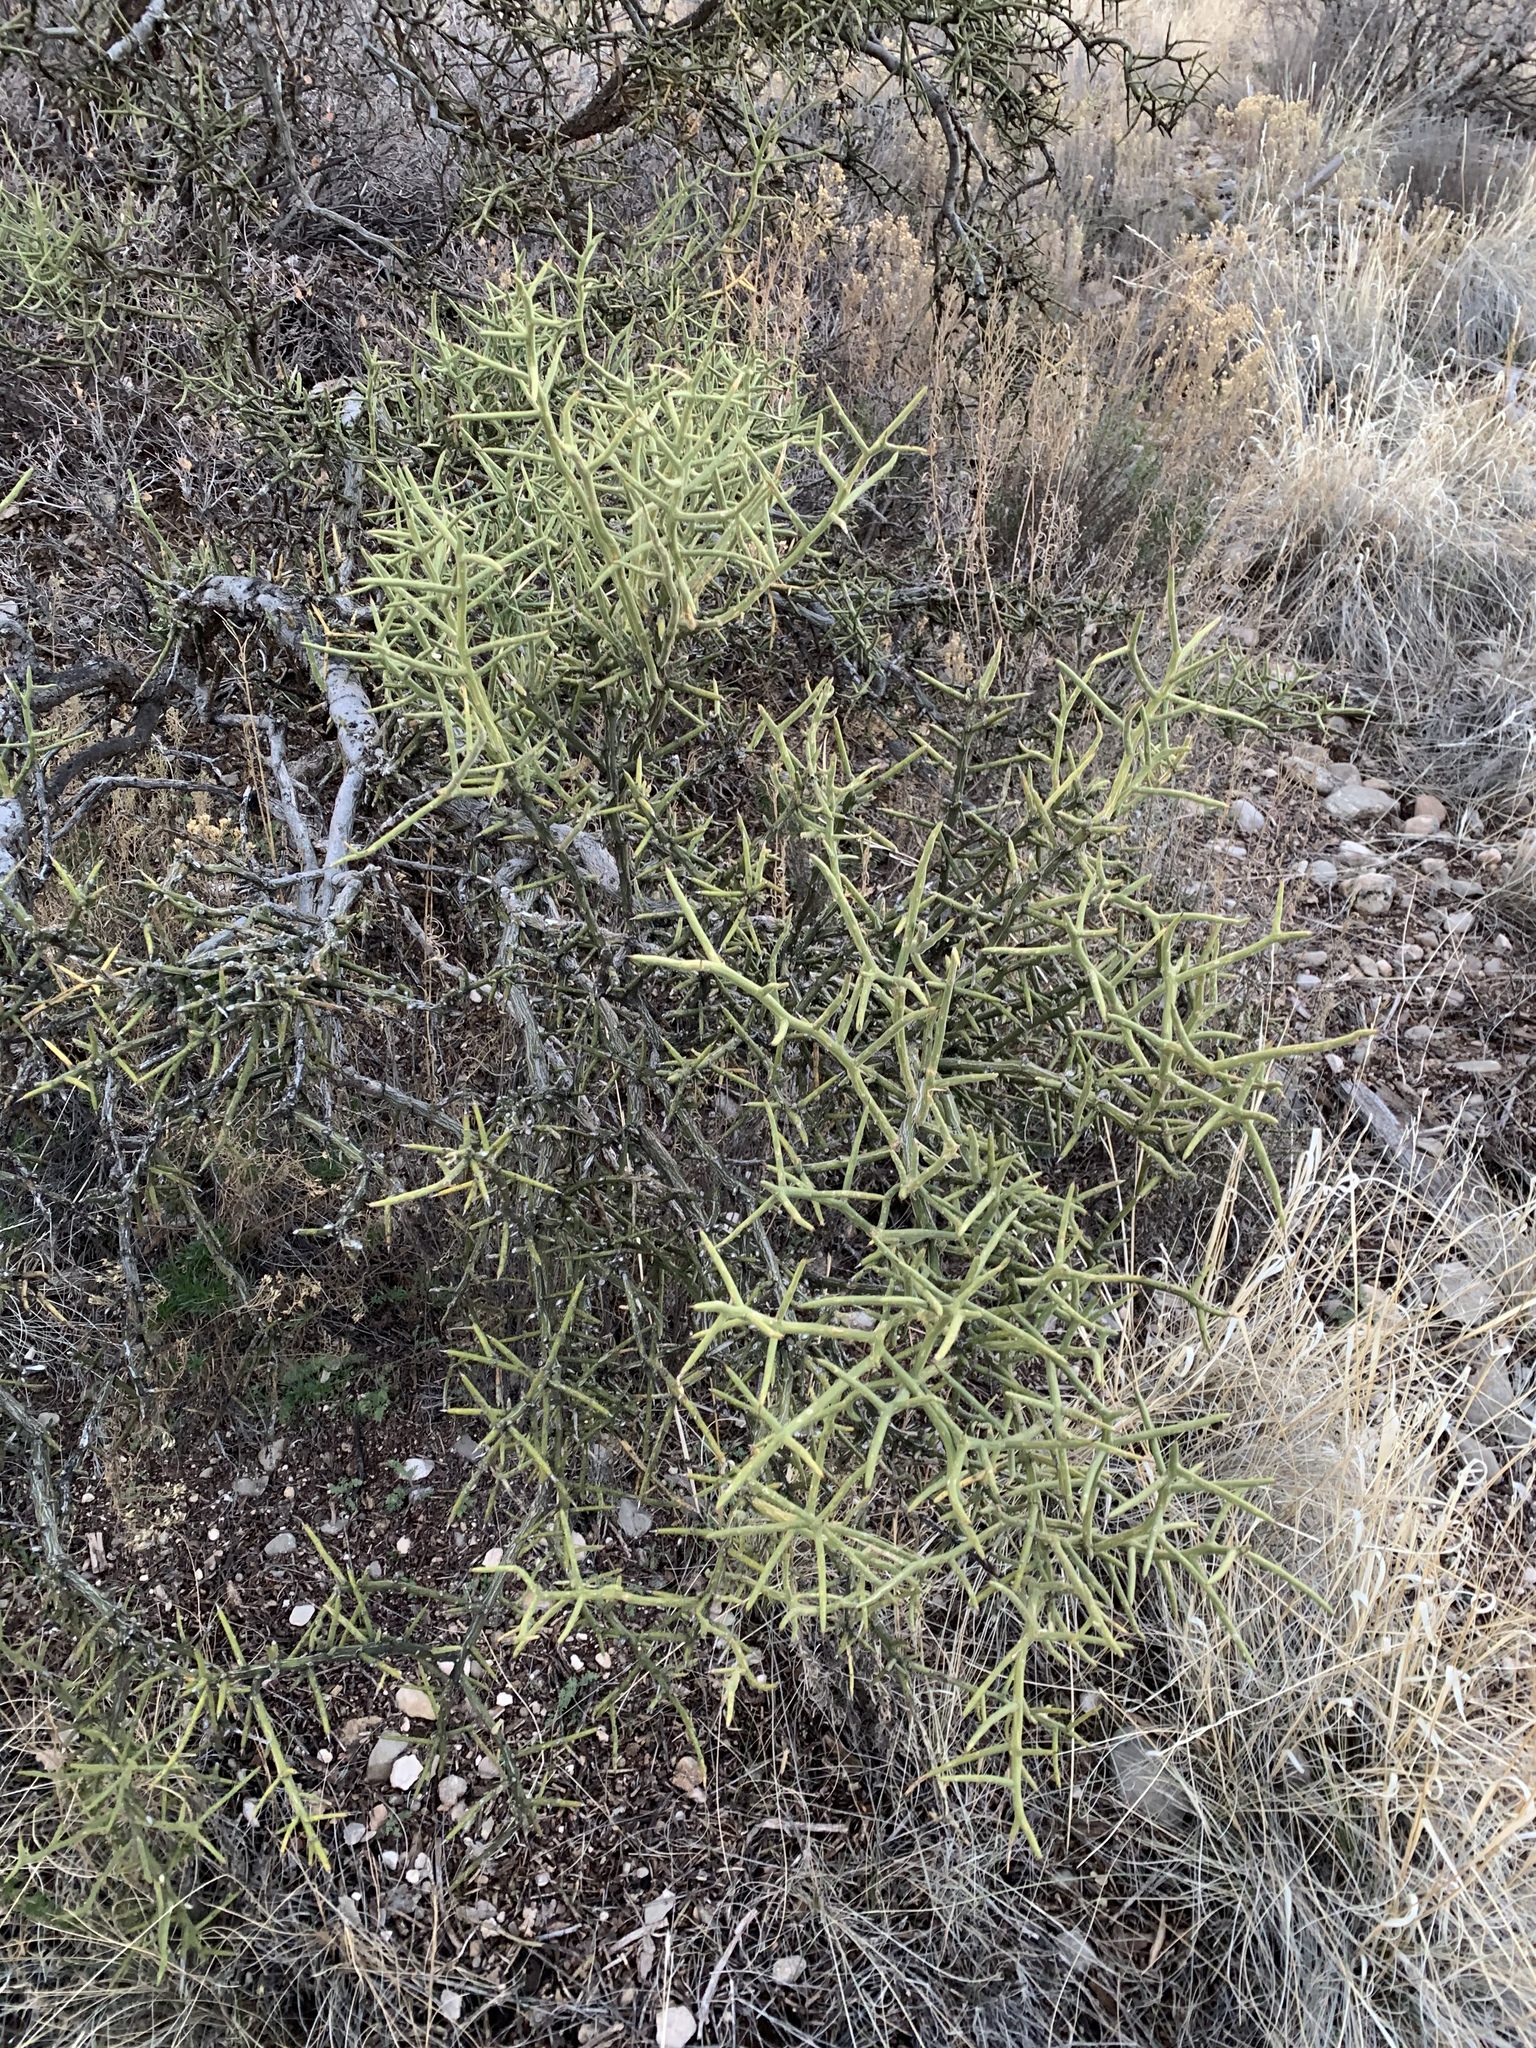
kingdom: Plantae
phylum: Tracheophyta
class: Magnoliopsida
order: Brassicales
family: Koeberliniaceae
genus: Koeberlinia
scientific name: Koeberlinia spinosa
